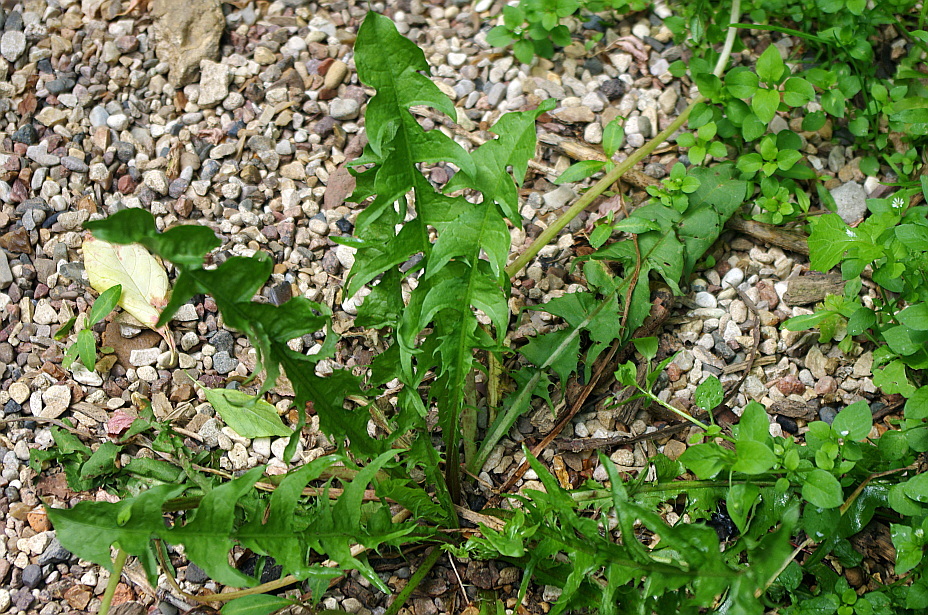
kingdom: Plantae
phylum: Tracheophyta
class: Magnoliopsida
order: Asterales
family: Asteraceae
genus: Taraxacum
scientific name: Taraxacum officinale
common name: Common dandelion
